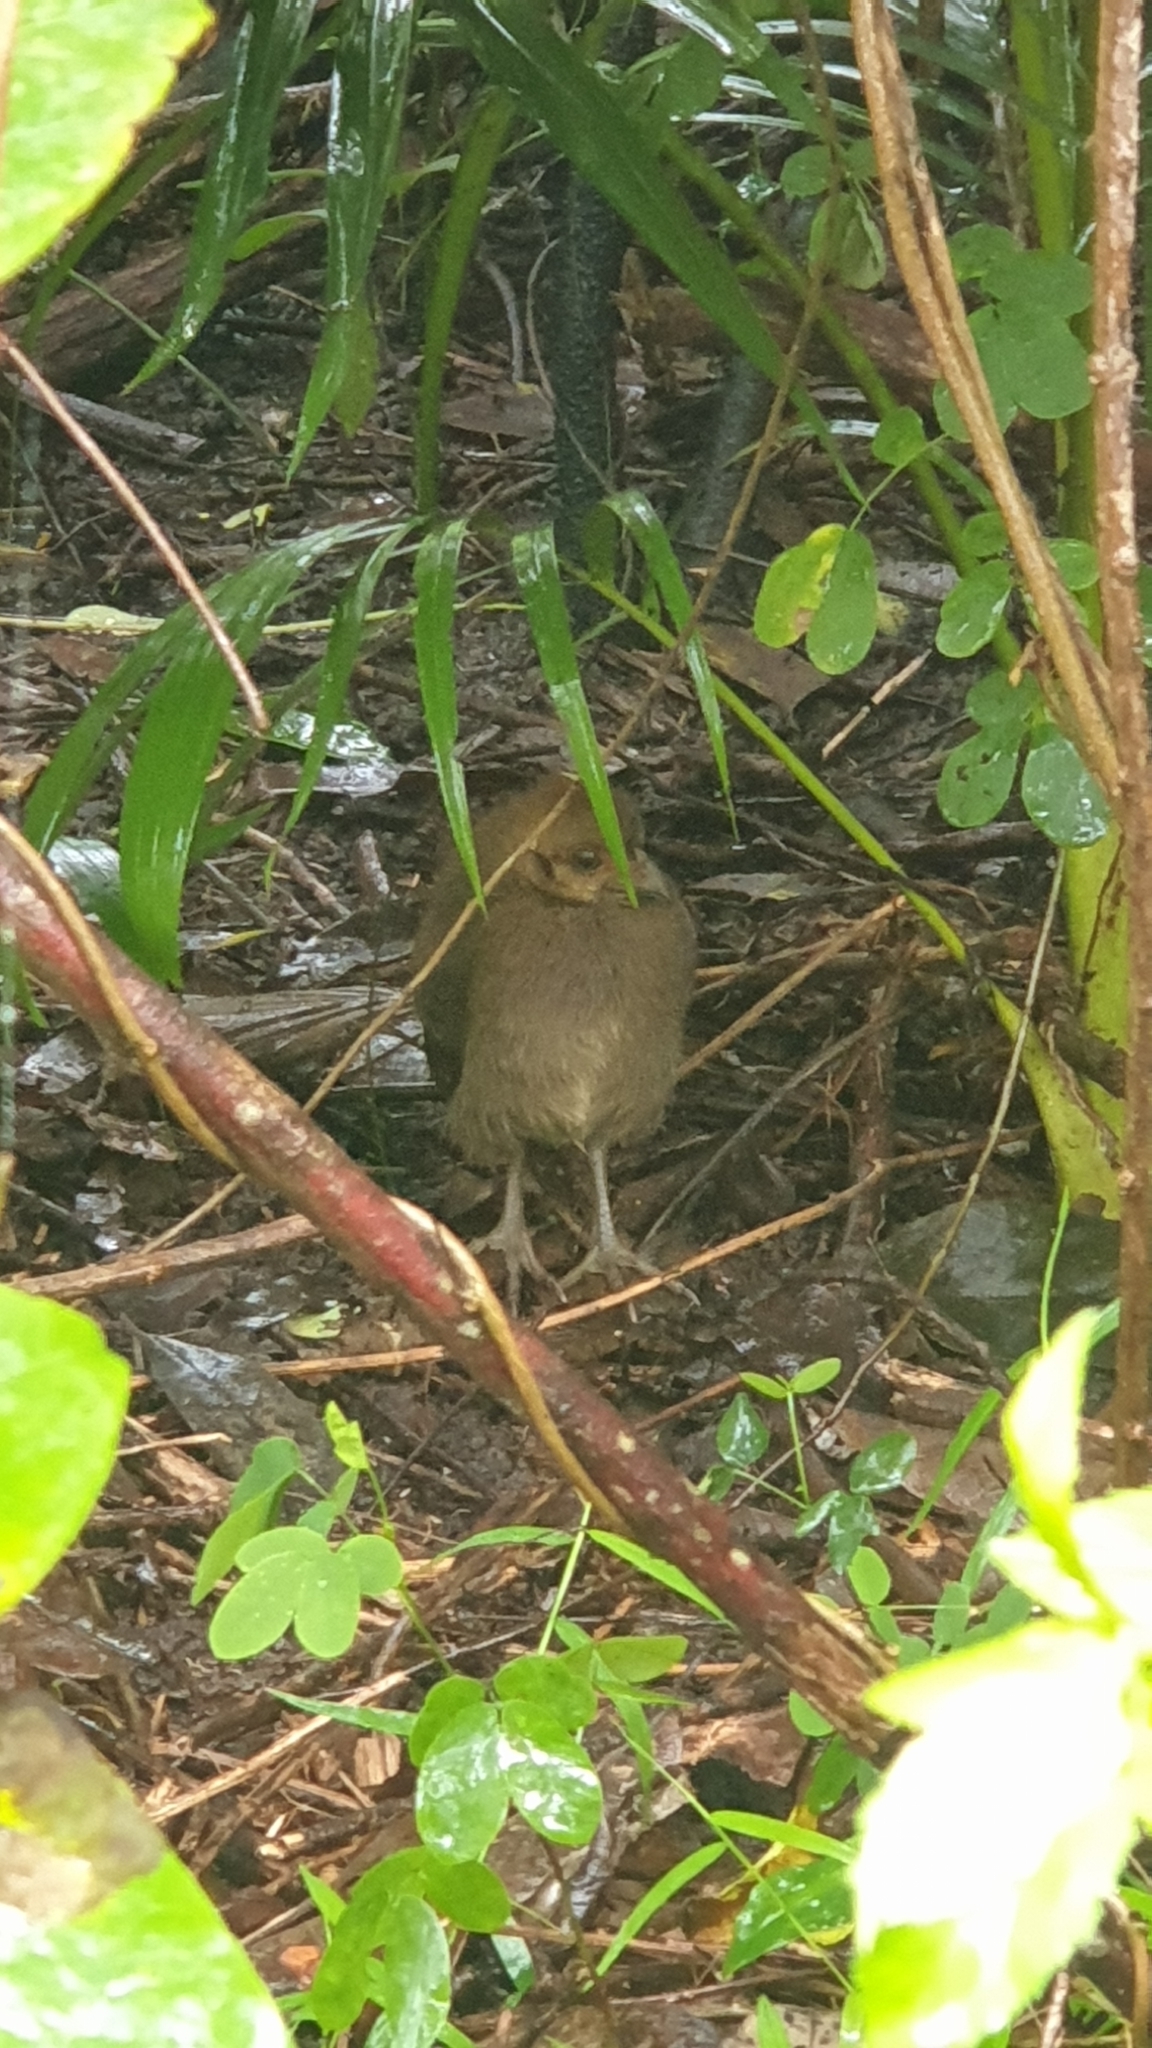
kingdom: Animalia
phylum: Chordata
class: Aves
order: Galliformes
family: Megapodiidae
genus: Alectura
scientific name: Alectura lathami
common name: Australian brushturkey
